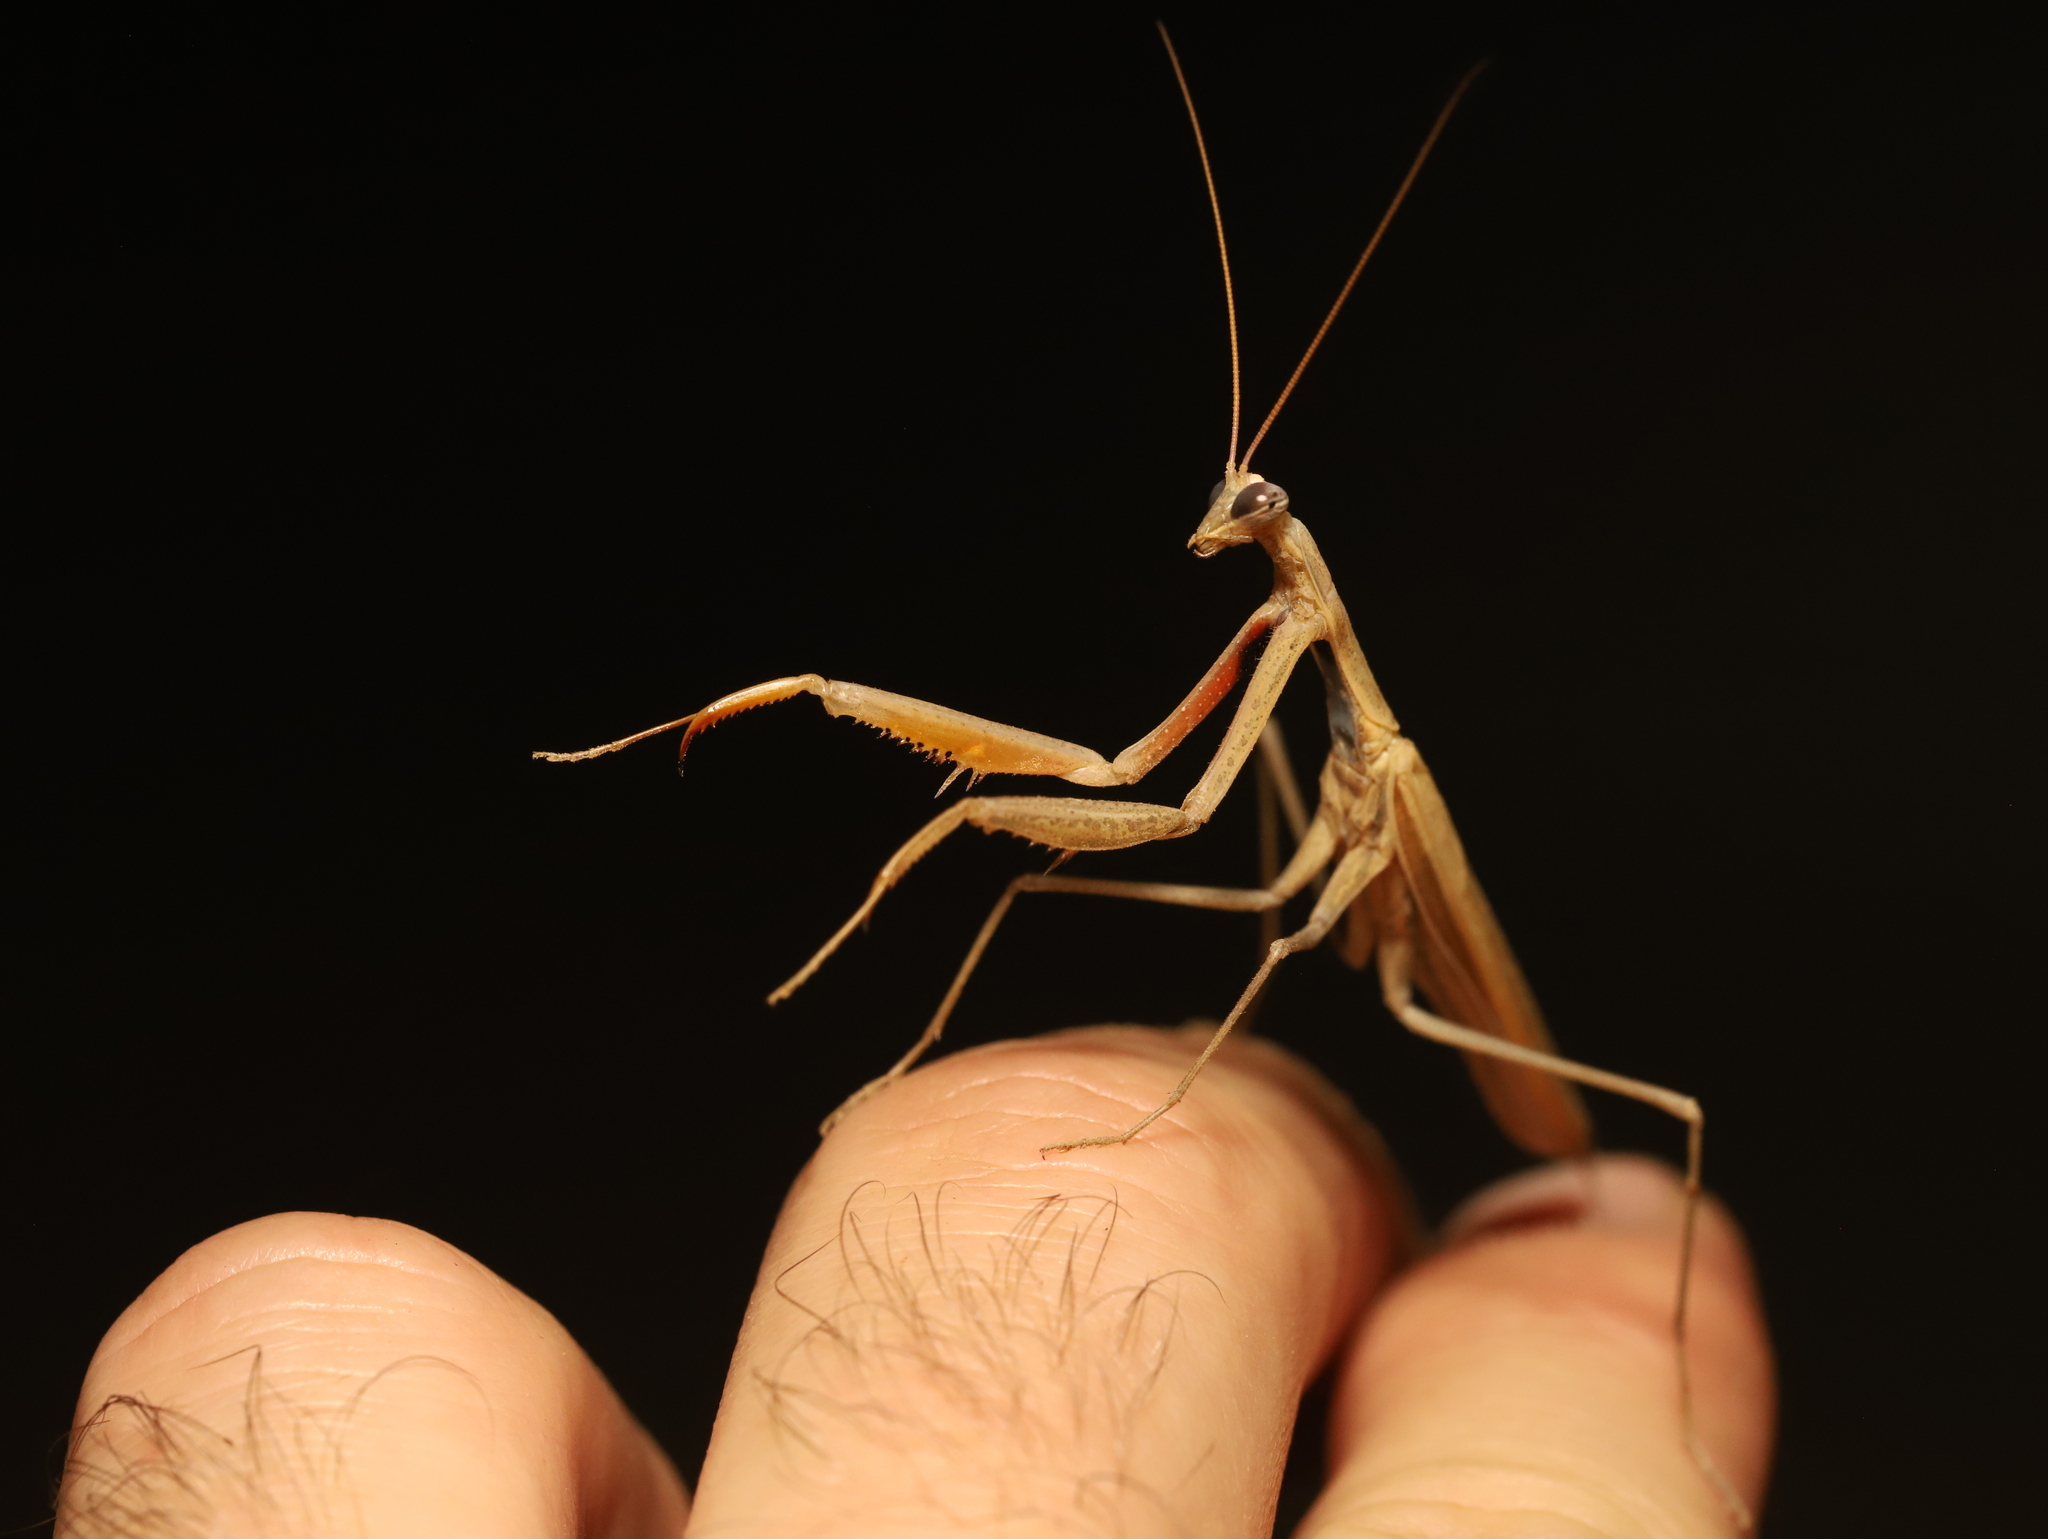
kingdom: Animalia
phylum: Arthropoda
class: Insecta
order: Mantodea
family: Mantidae
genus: Mantis
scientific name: Mantis octospilota
